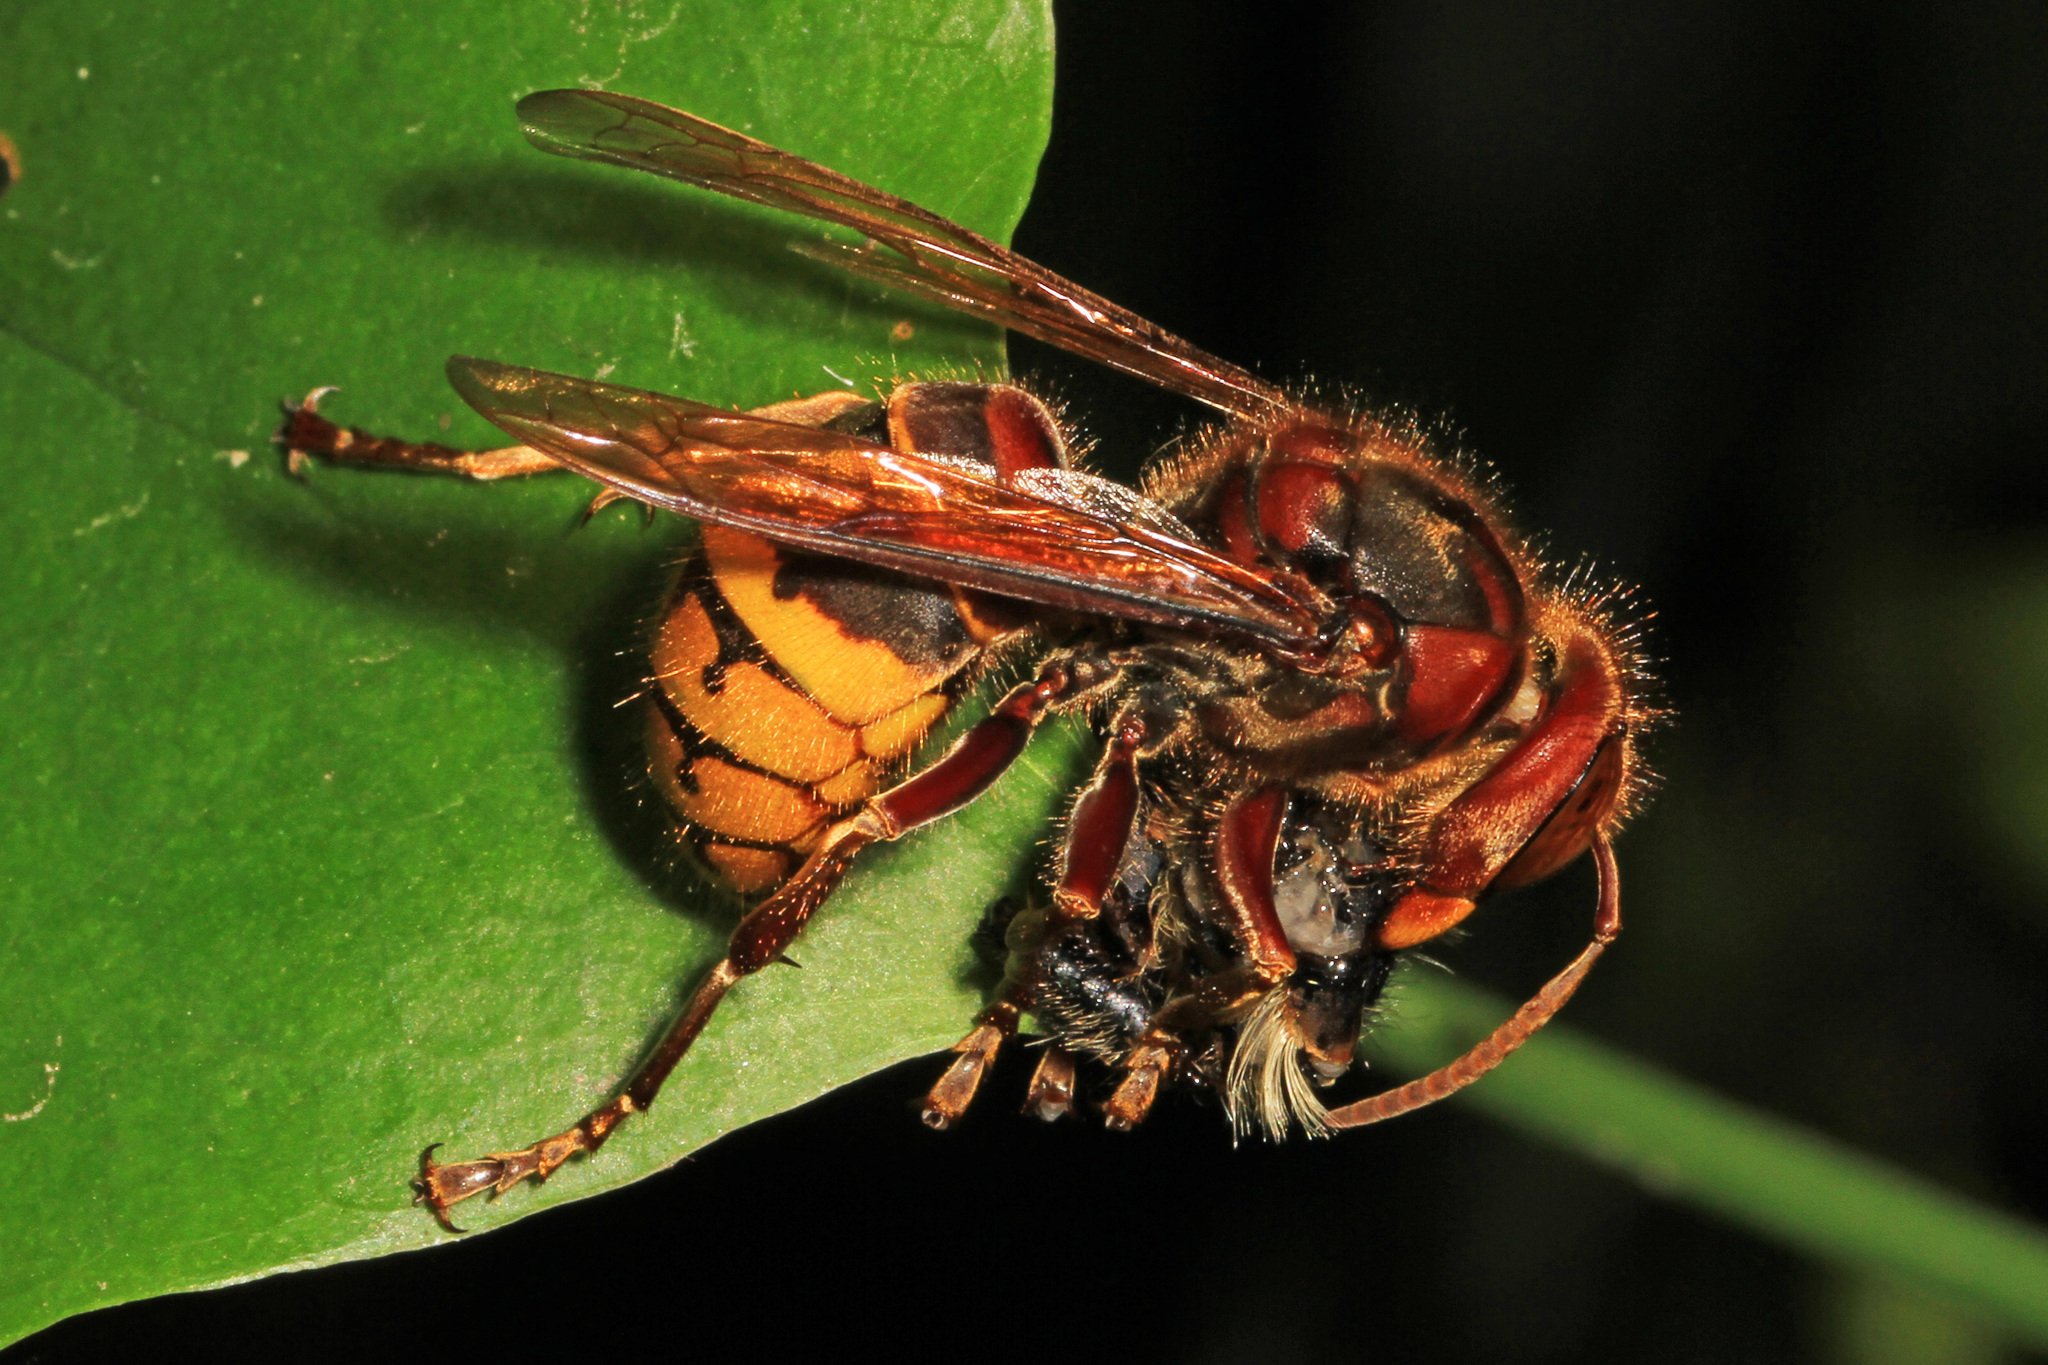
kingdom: Animalia
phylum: Arthropoda
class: Insecta
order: Hymenoptera
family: Vespidae
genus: Vespa
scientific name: Vespa crabro
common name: Hornet
